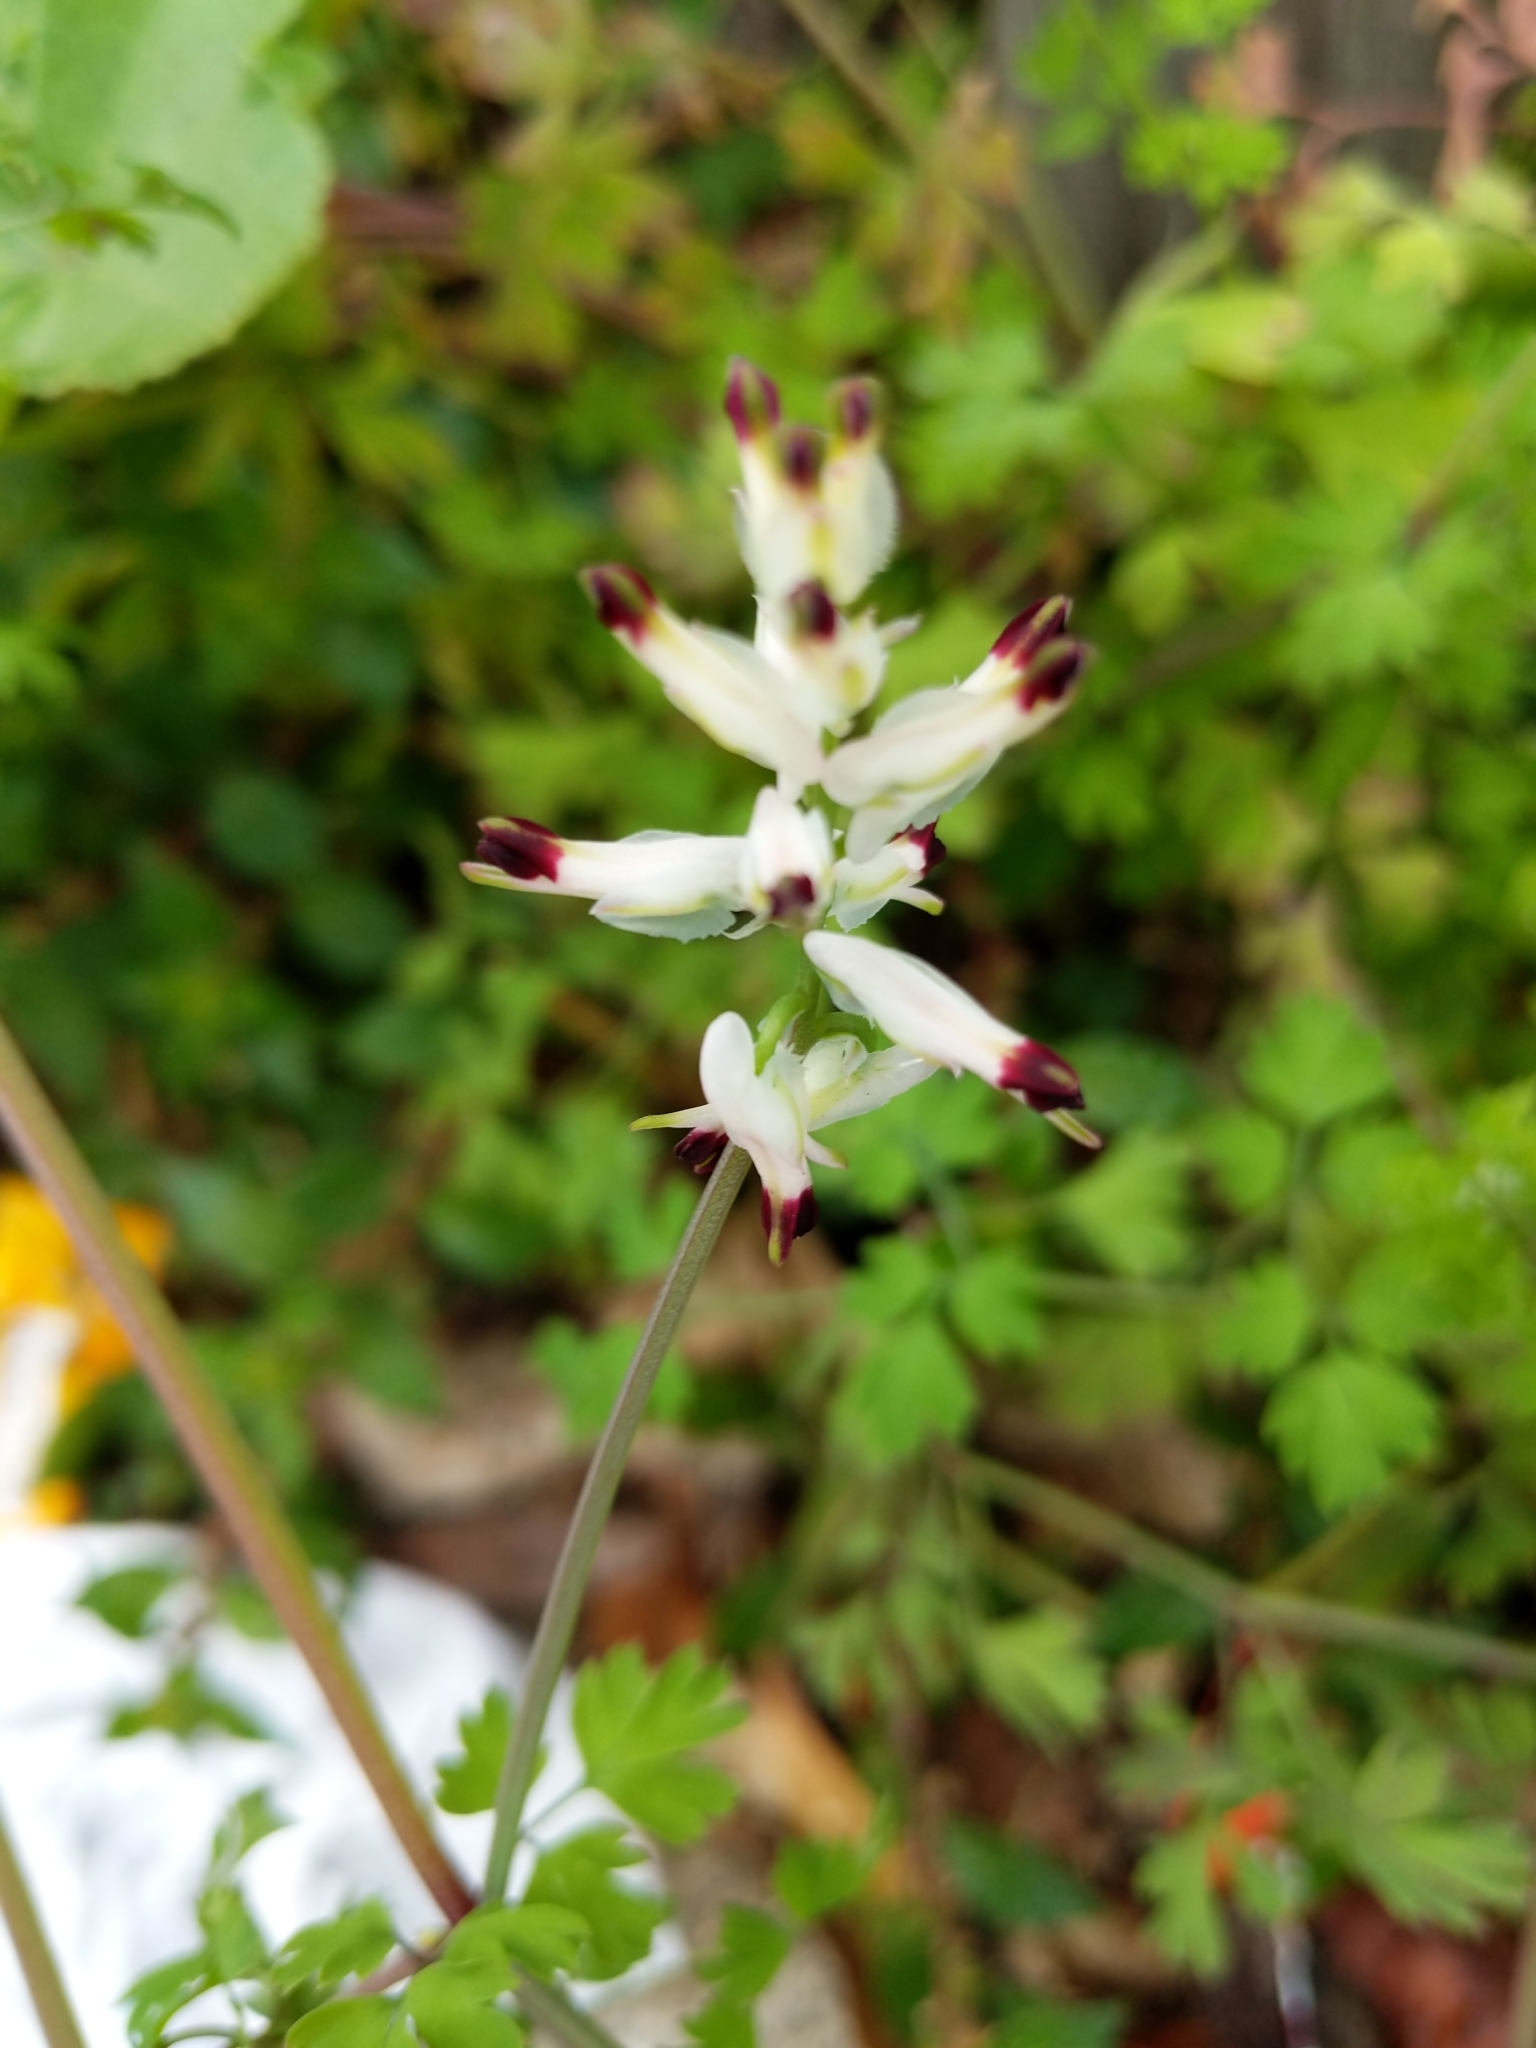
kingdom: Plantae
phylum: Tracheophyta
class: Magnoliopsida
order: Ranunculales
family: Papaveraceae
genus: Fumaria
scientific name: Fumaria capreolata
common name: White ramping-fumitory
